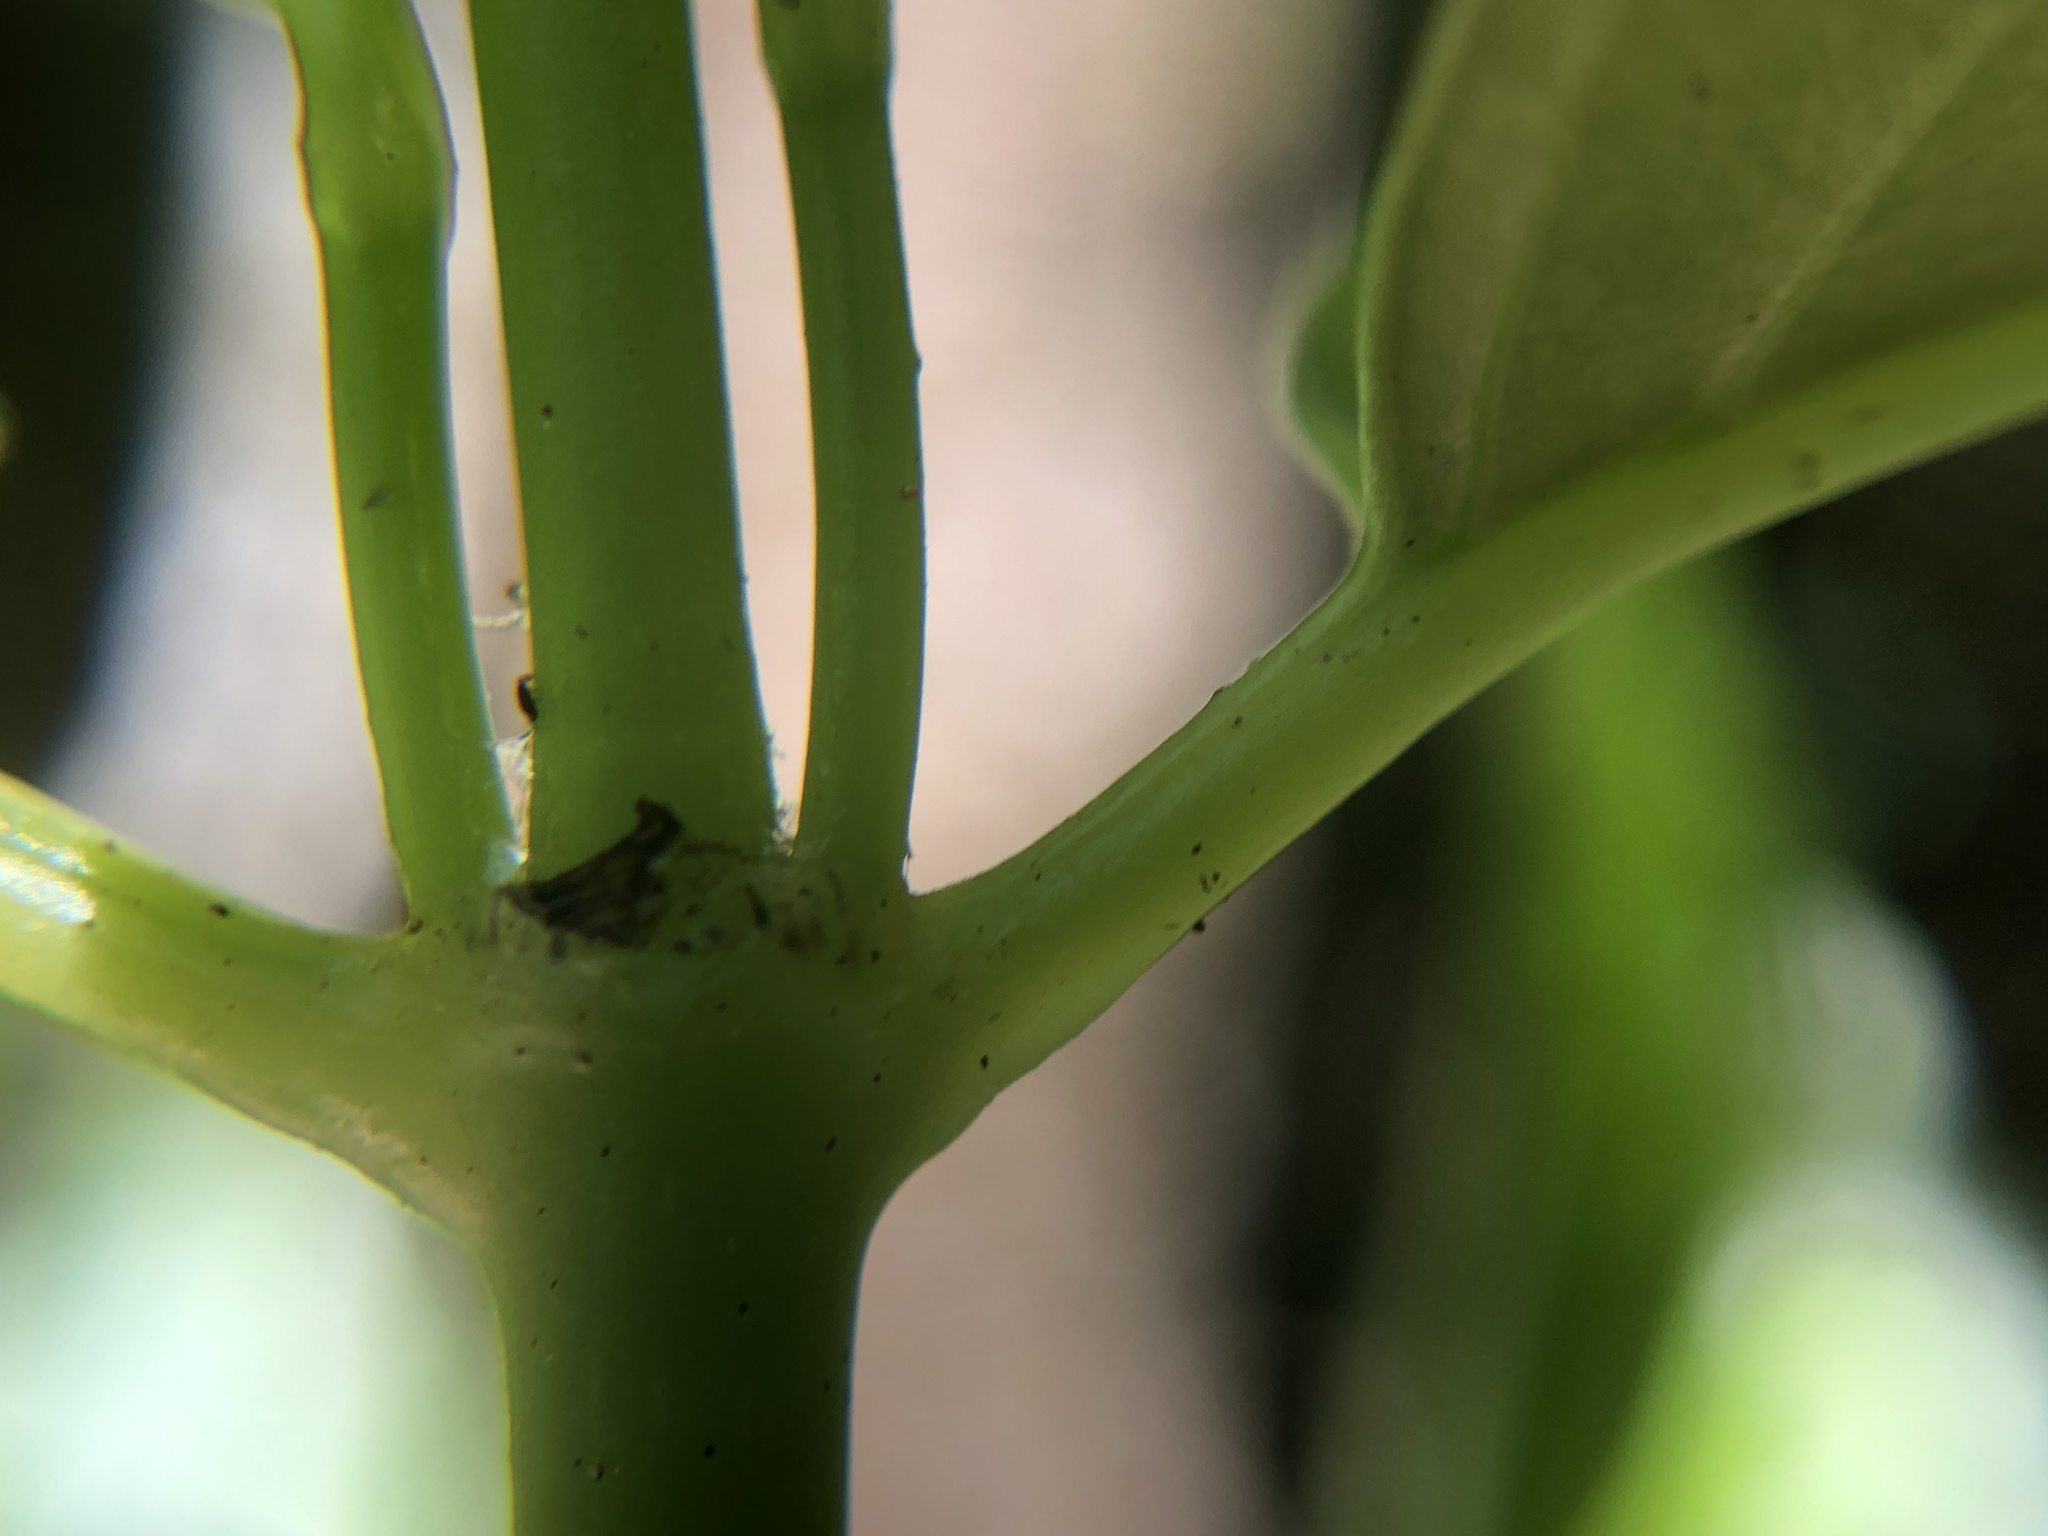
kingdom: Plantae
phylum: Tracheophyta
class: Magnoliopsida
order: Gentianales
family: Loganiaceae
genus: Geniostoma
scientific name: Geniostoma ligustrifolium
